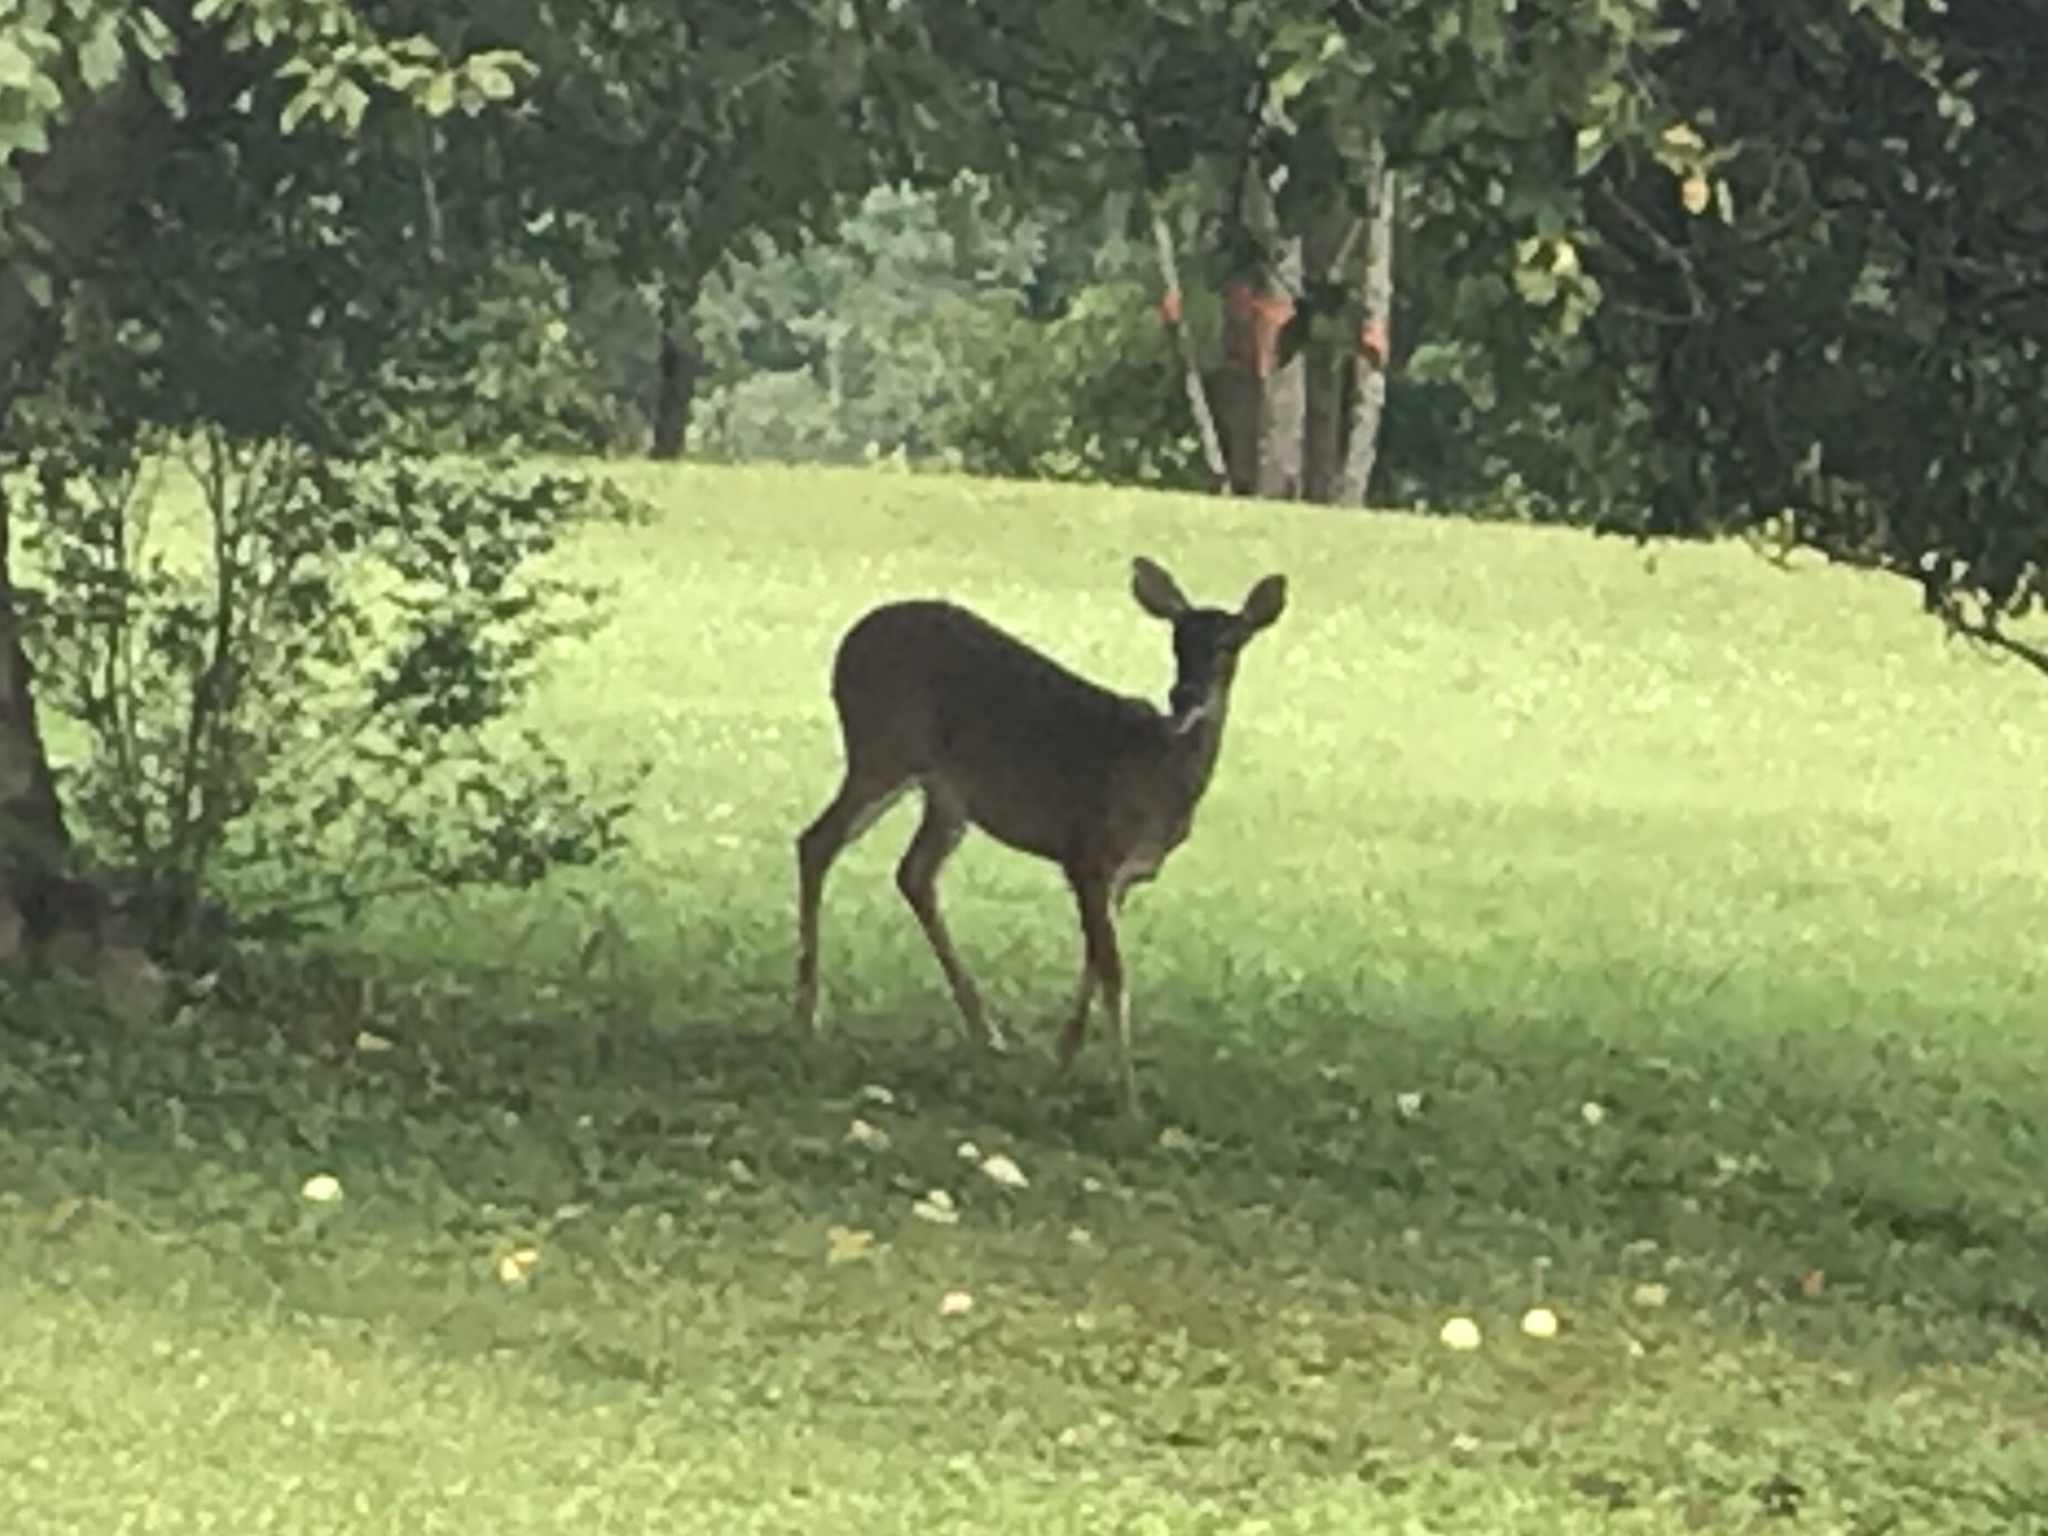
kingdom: Animalia
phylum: Chordata
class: Mammalia
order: Artiodactyla
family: Cervidae
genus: Odocoileus
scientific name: Odocoileus virginianus
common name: White-tailed deer
